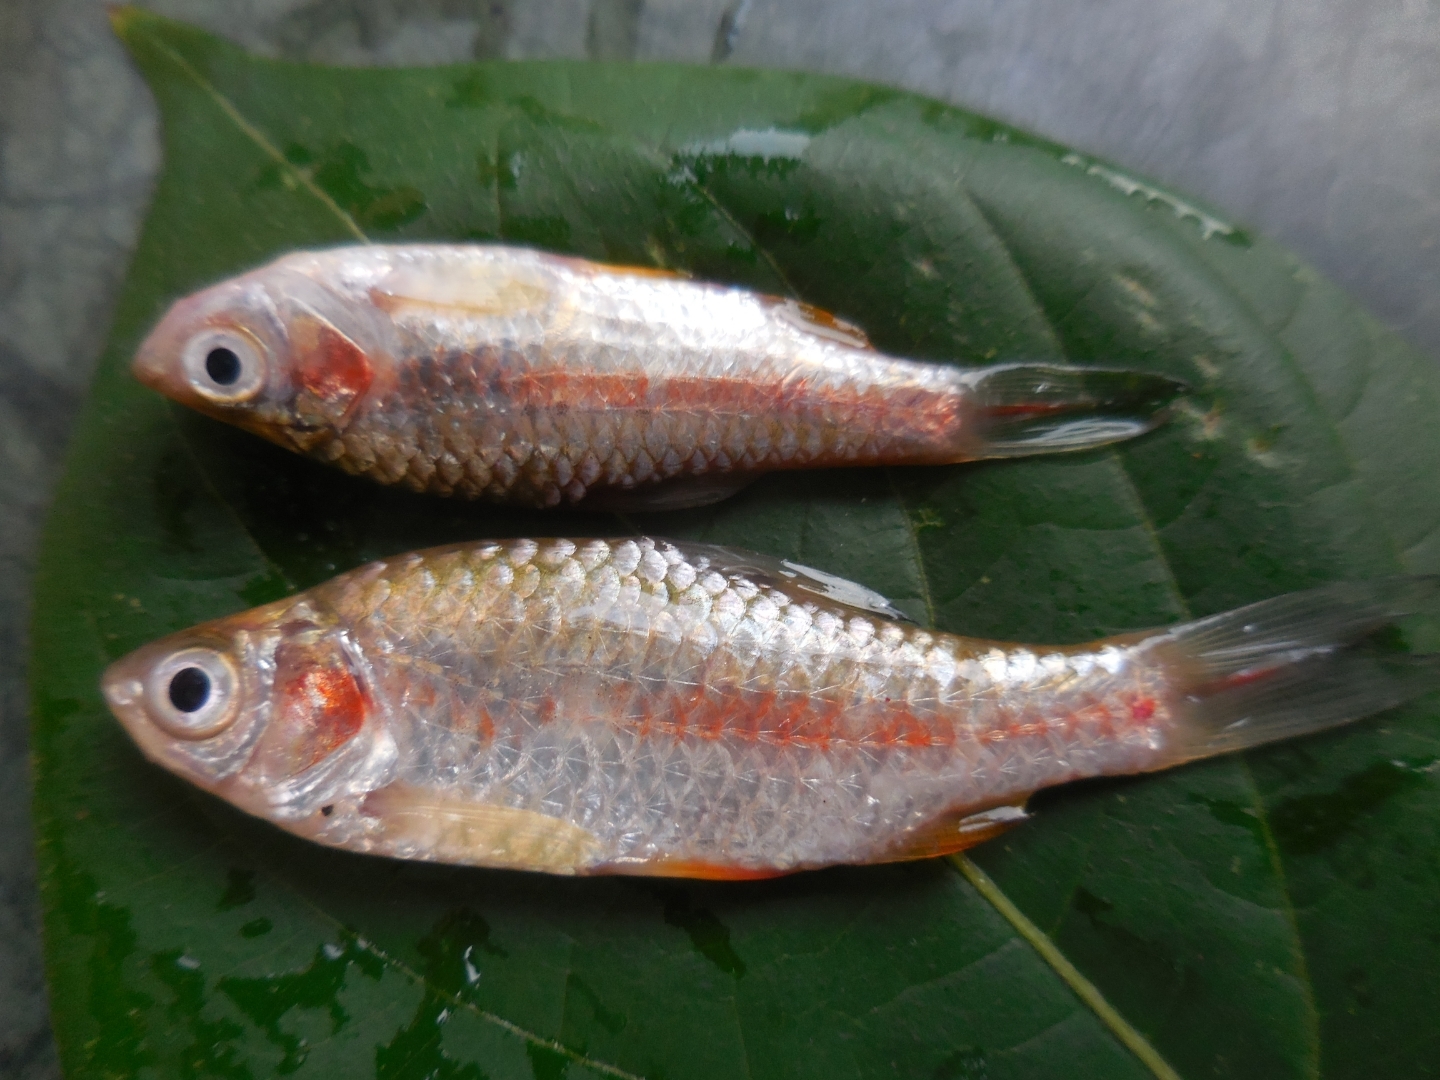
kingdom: Animalia
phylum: Chordata
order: Cypriniformes
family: Cyprinidae
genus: Puntius
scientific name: Puntius sophore
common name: Pool barb
